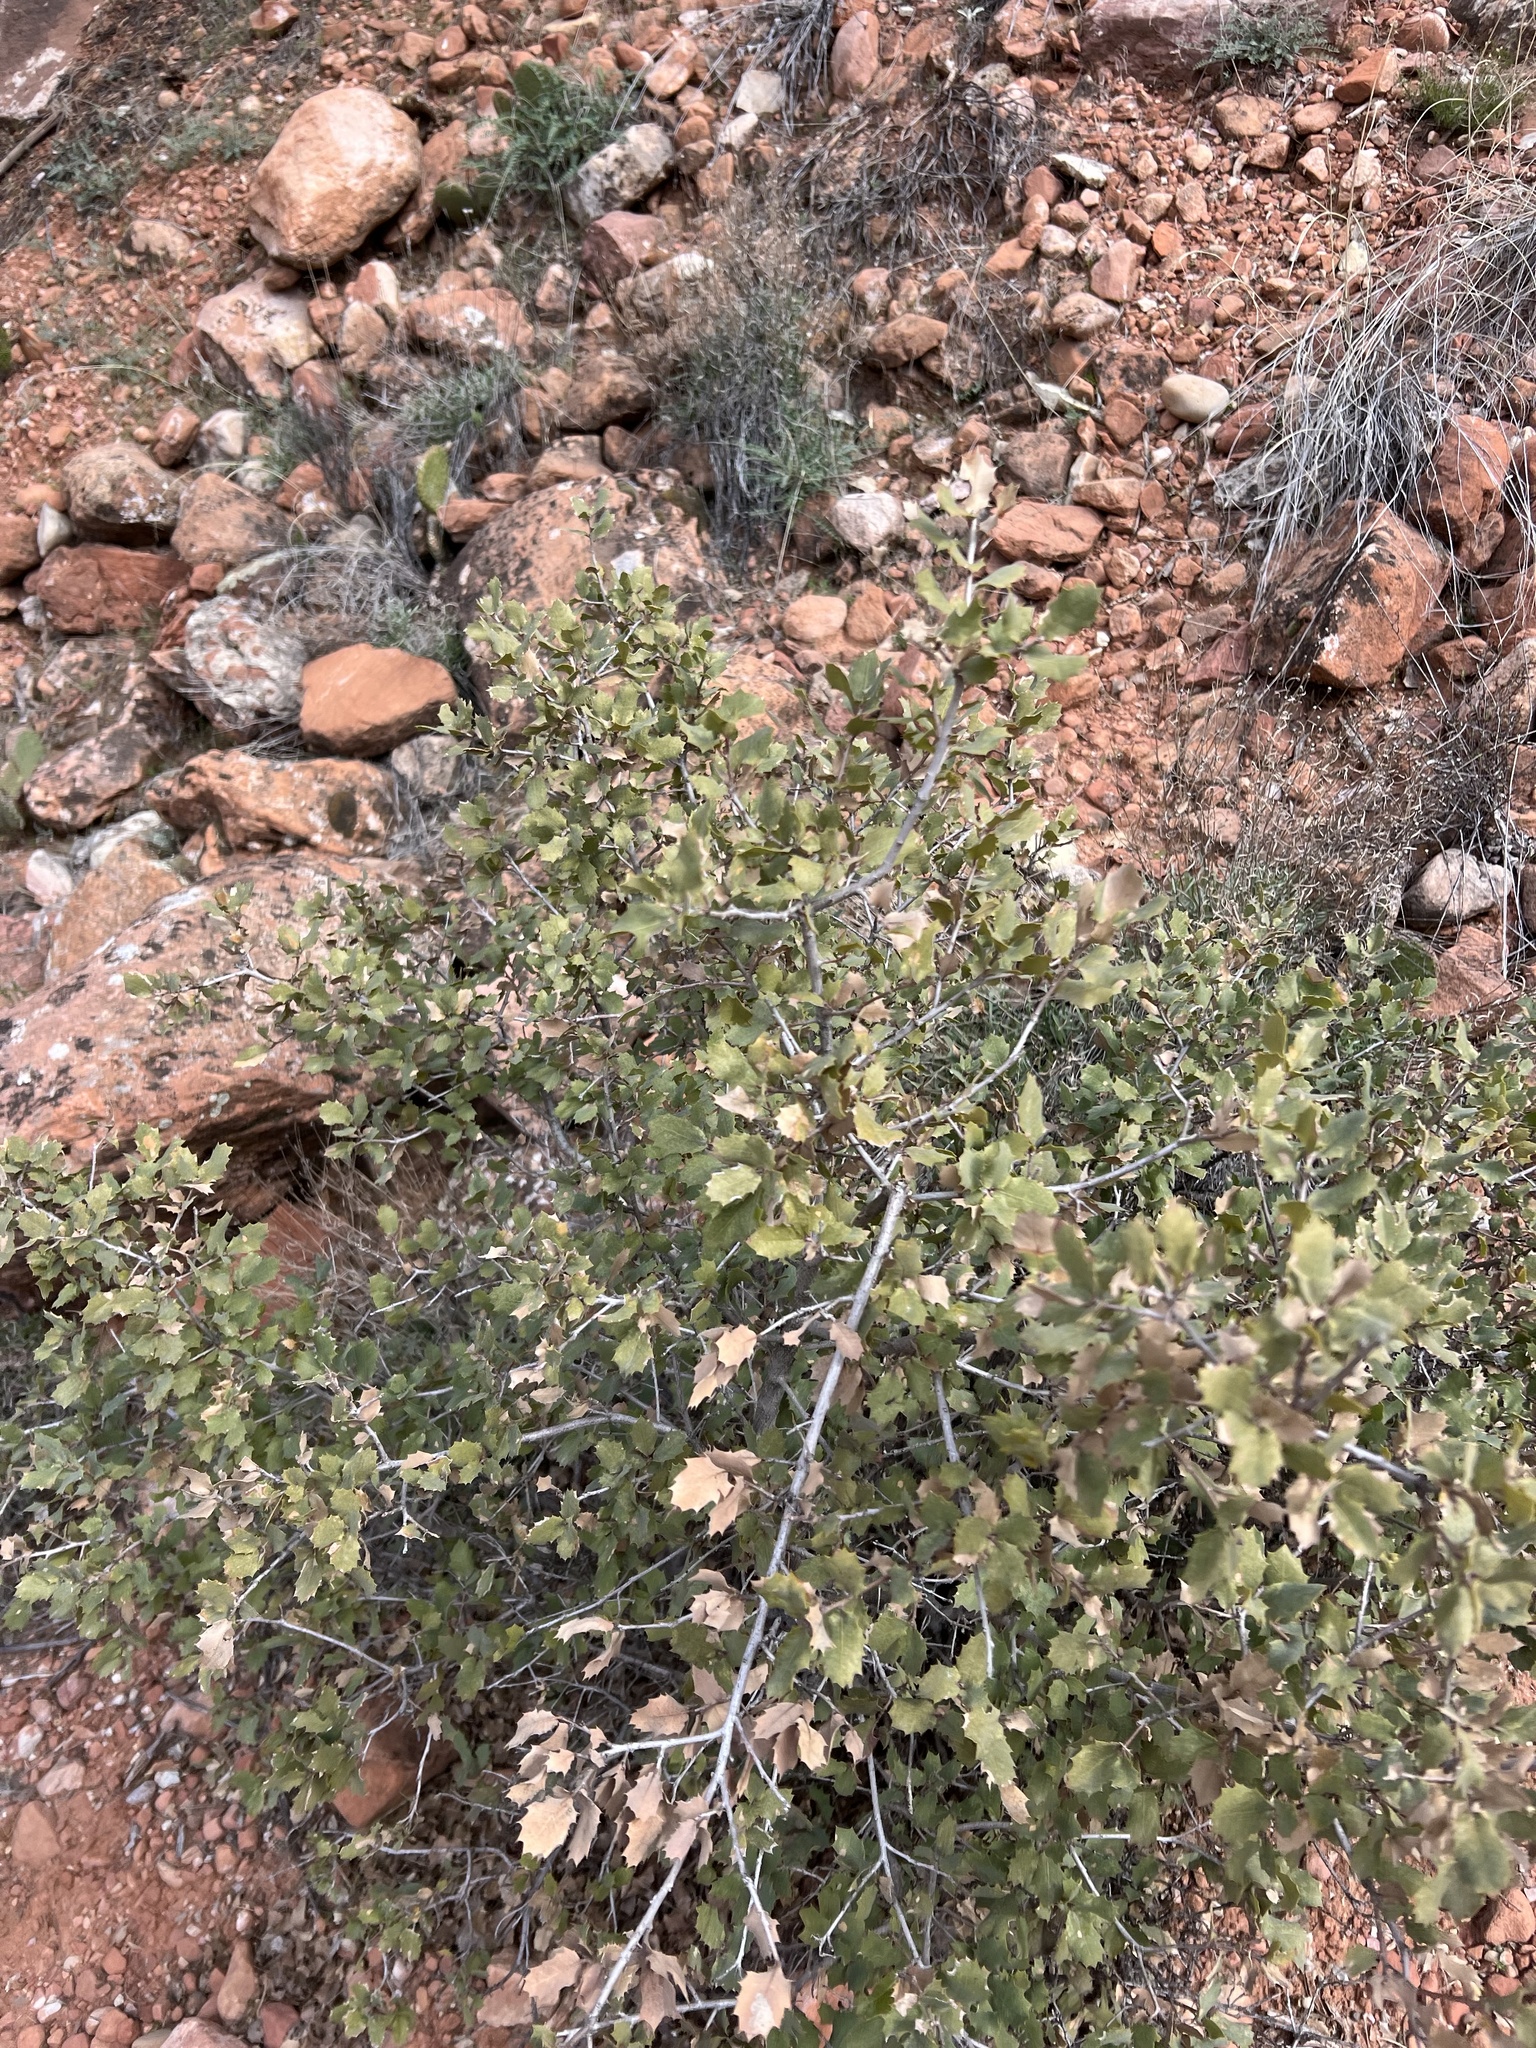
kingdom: Plantae
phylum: Tracheophyta
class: Magnoliopsida
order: Fagales
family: Fagaceae
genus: Quercus
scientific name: Quercus turbinella
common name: Sonoran scrub oak
